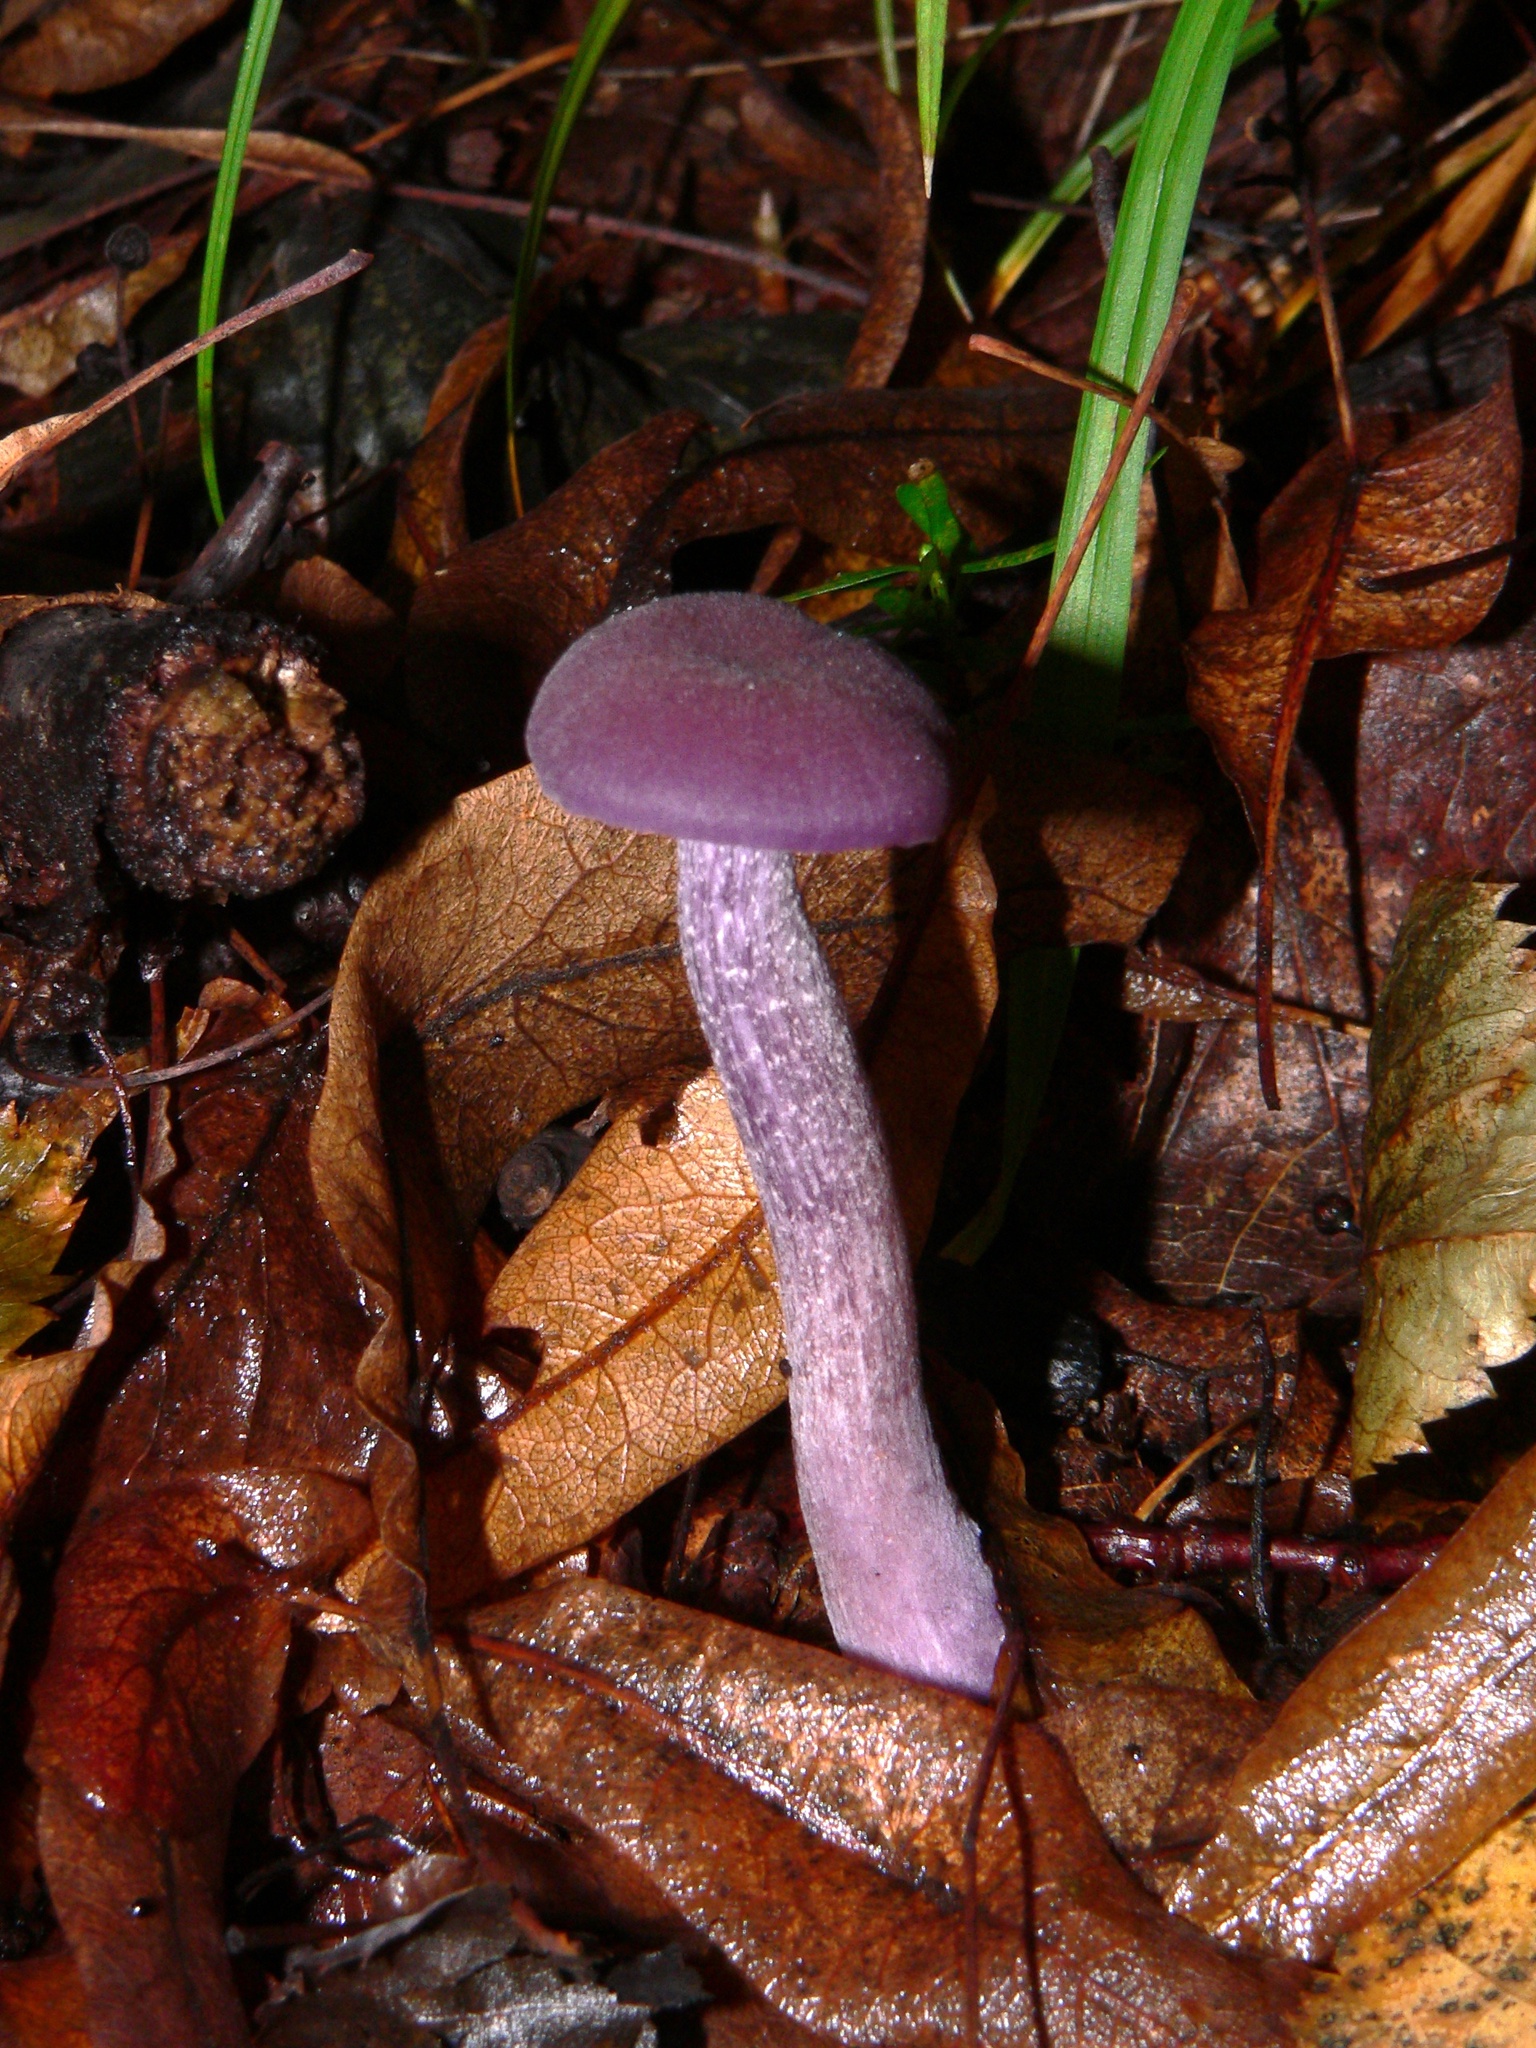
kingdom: Fungi
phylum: Basidiomycota
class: Agaricomycetes
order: Agaricales
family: Hydnangiaceae
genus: Laccaria
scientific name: Laccaria amethystina
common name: Amethyst deceiver
